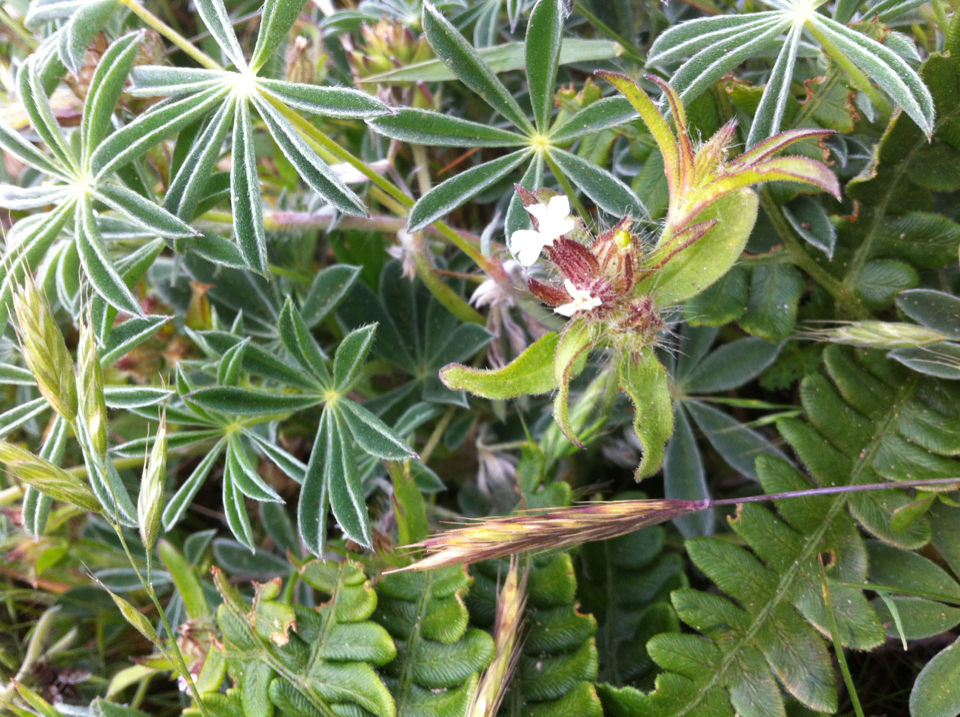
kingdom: Plantae
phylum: Tracheophyta
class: Magnoliopsida
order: Caryophyllales
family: Caryophyllaceae
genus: Silene
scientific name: Silene gallica
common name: Small-flowered catchfly
